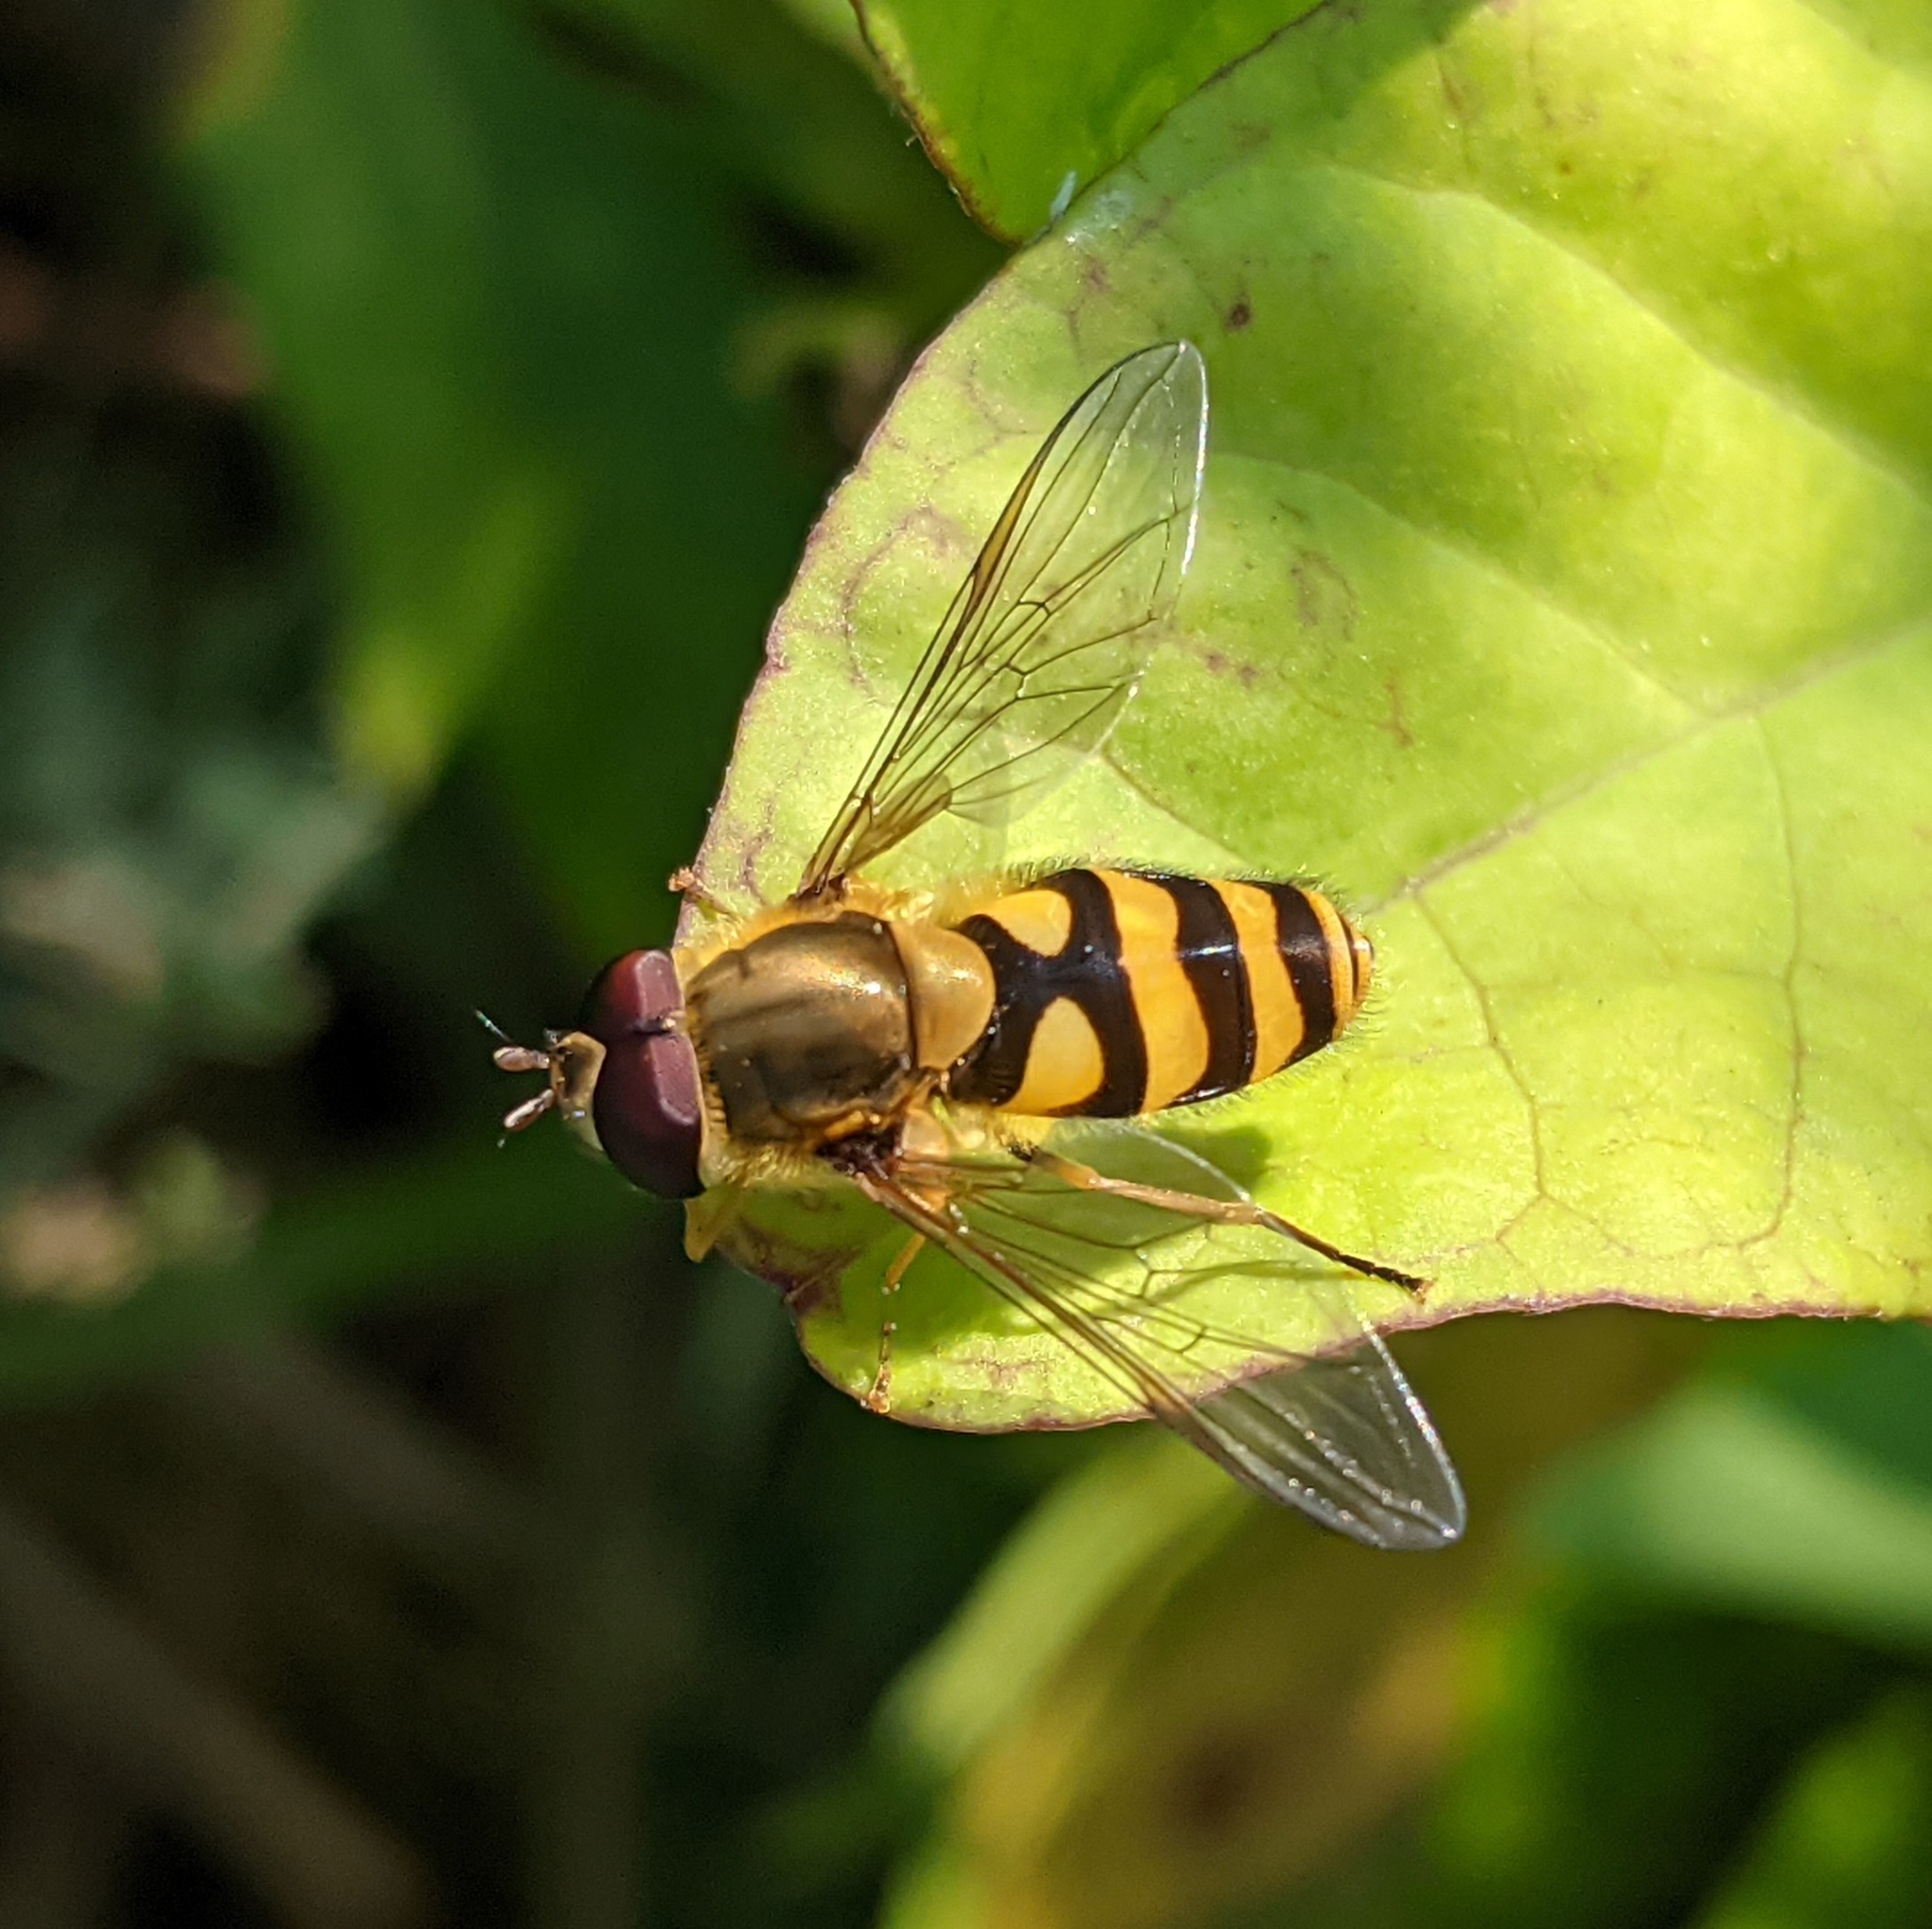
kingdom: Animalia
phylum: Arthropoda
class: Insecta
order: Diptera
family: Syrphidae
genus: Syrphus
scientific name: Syrphus
